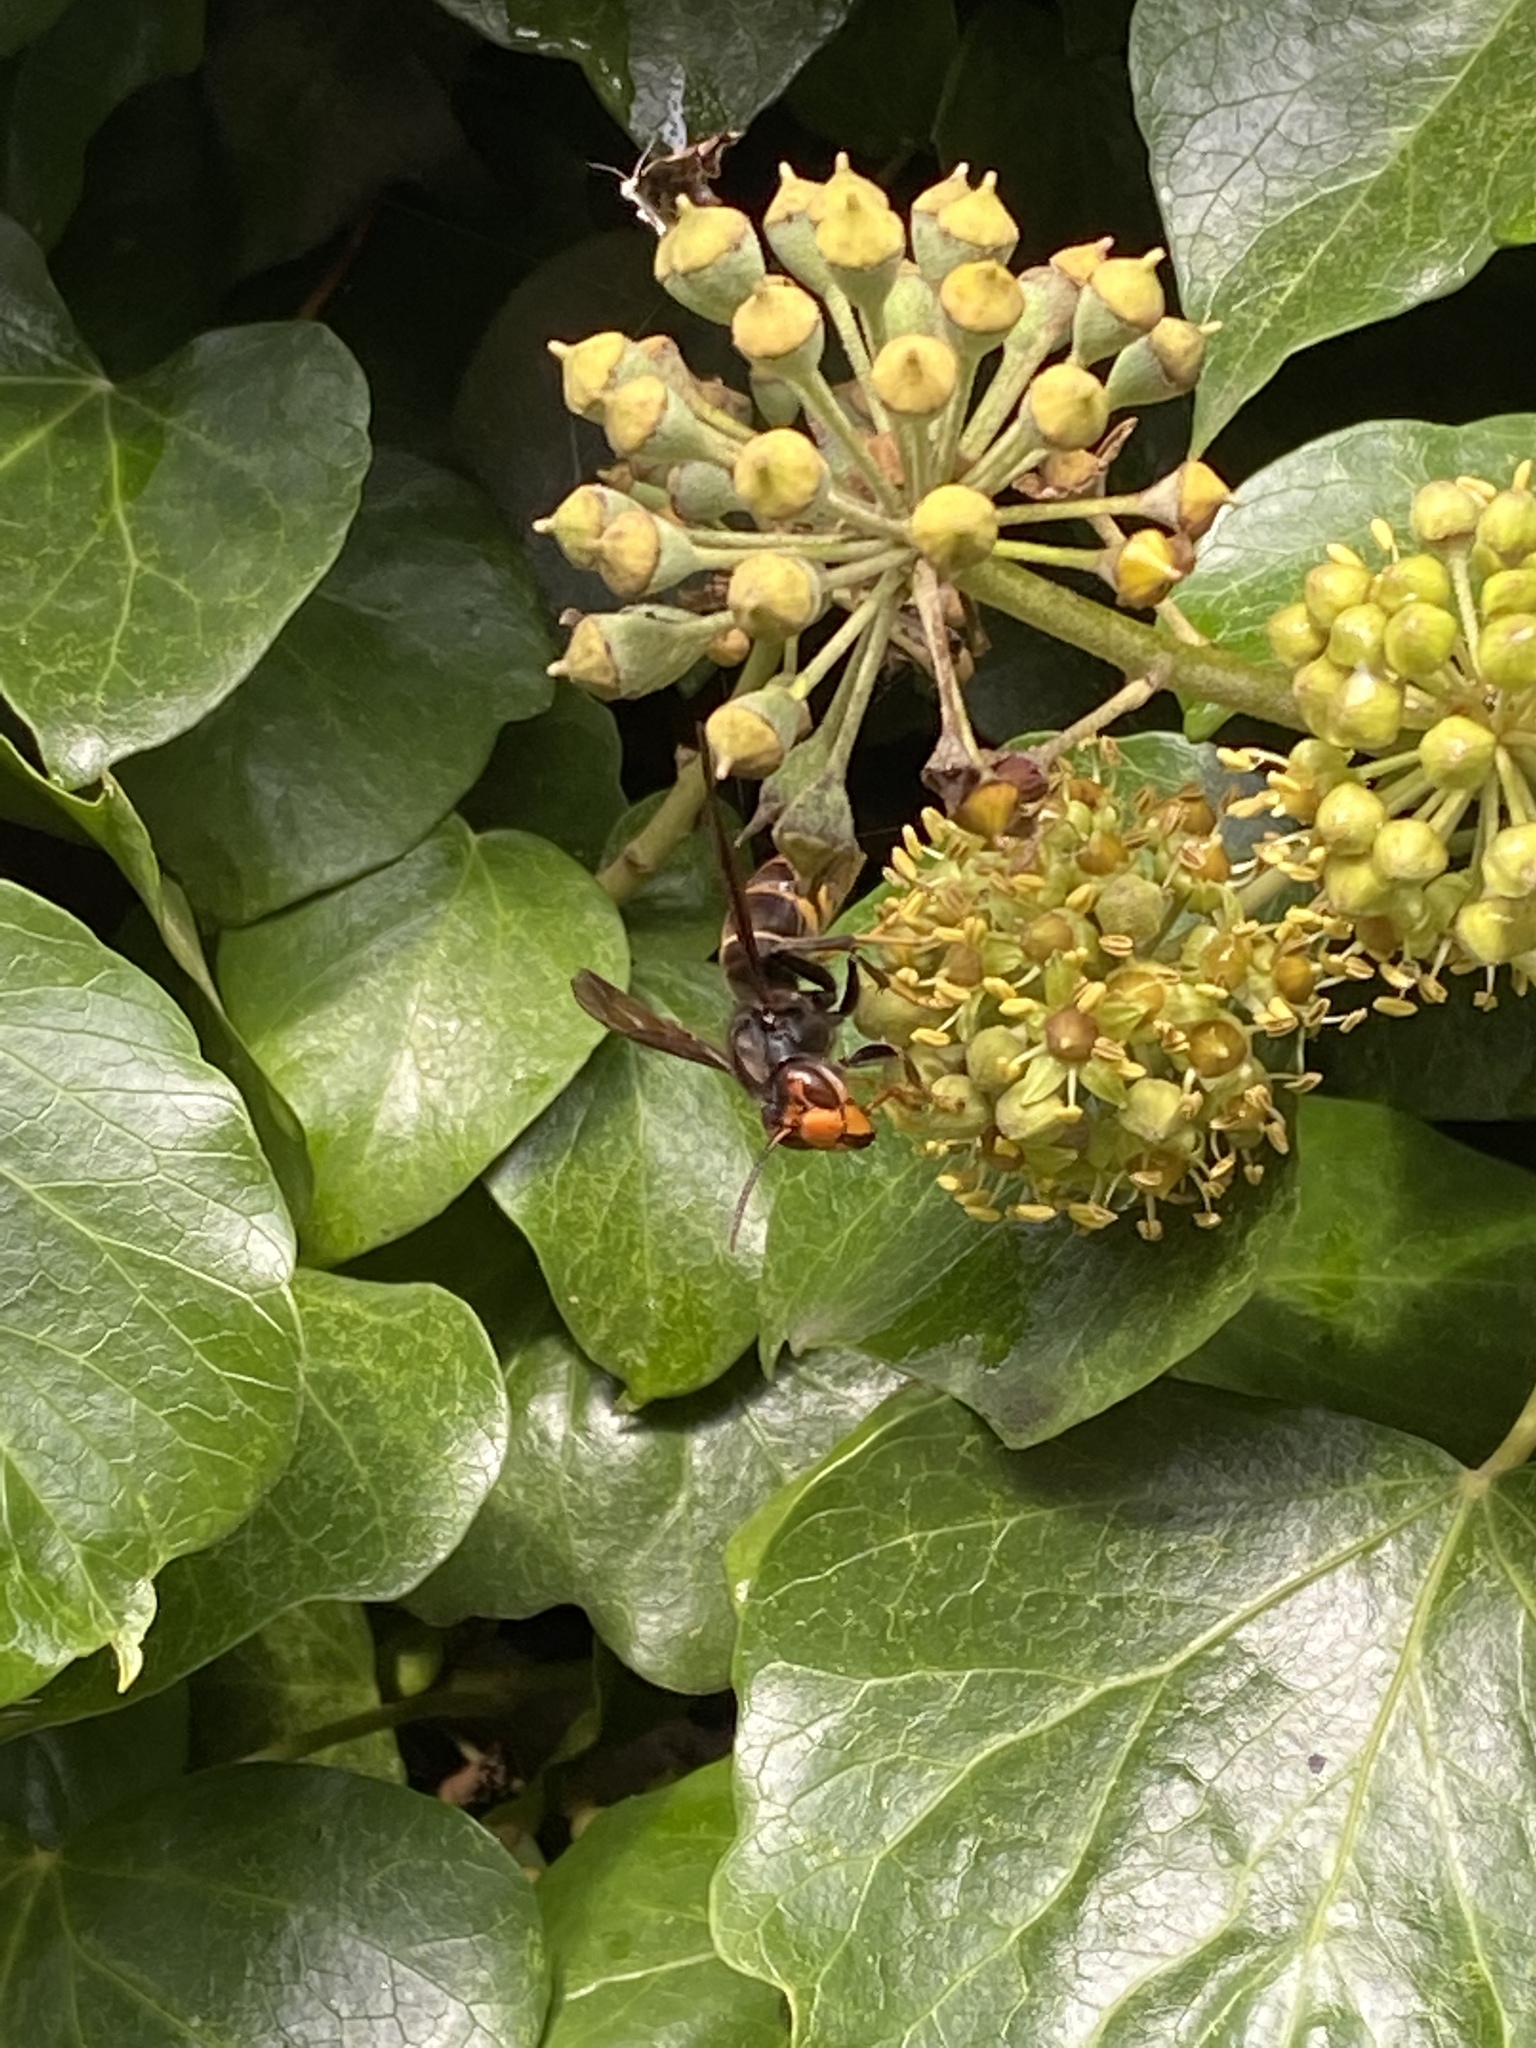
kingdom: Animalia
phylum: Arthropoda
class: Insecta
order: Hymenoptera
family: Vespidae
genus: Vespa
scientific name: Vespa velutina
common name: Asian hornet
